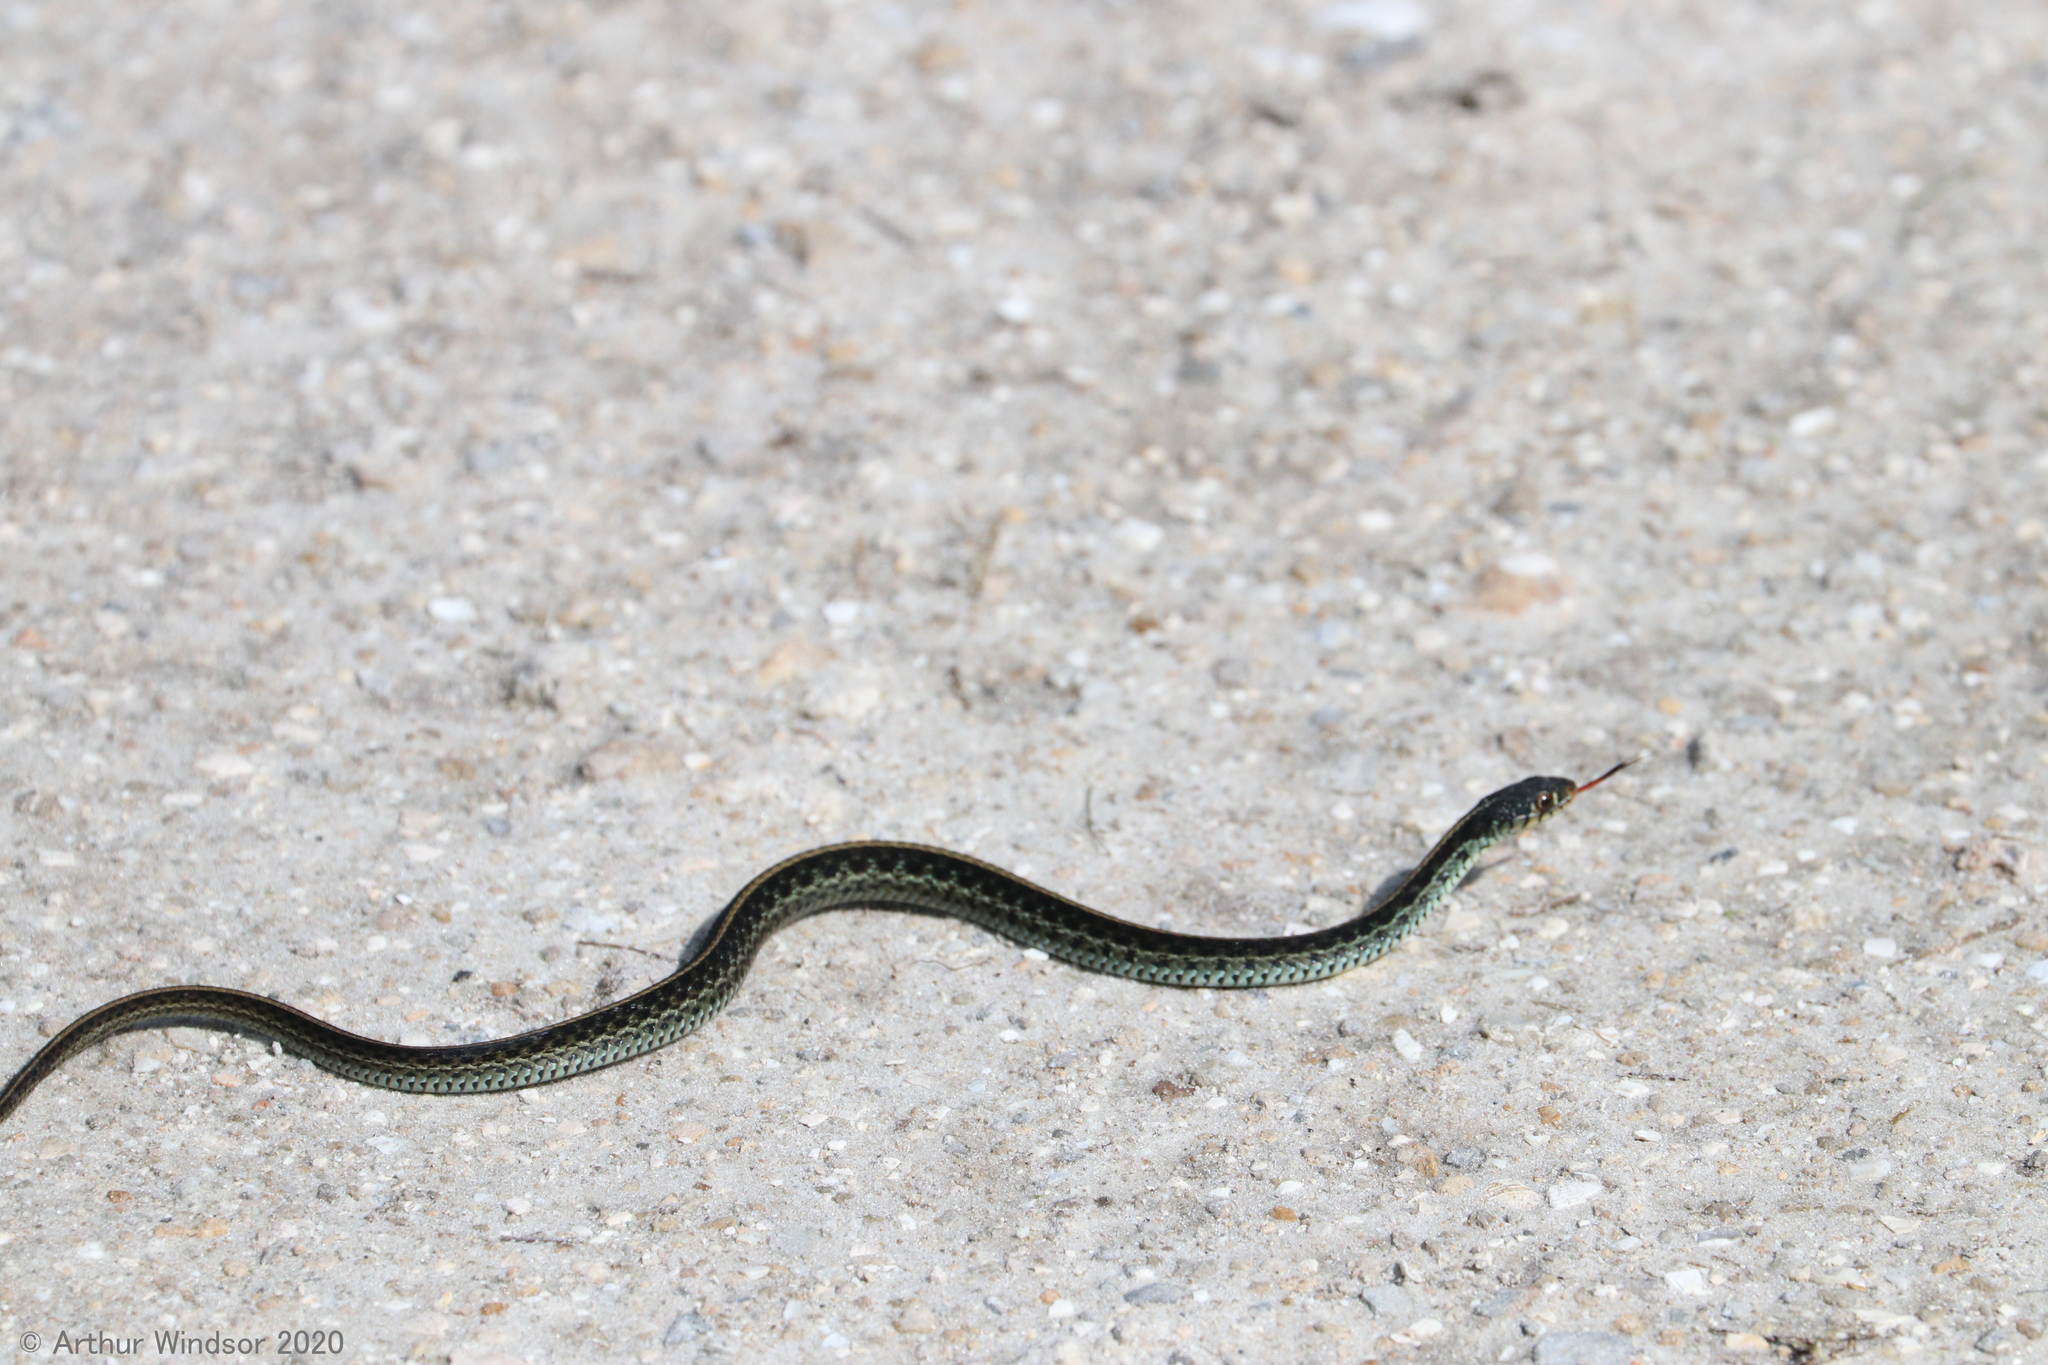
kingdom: Animalia
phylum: Chordata
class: Squamata
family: Colubridae
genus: Thamnophis
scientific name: Thamnophis sirtalis
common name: Common garter snake
